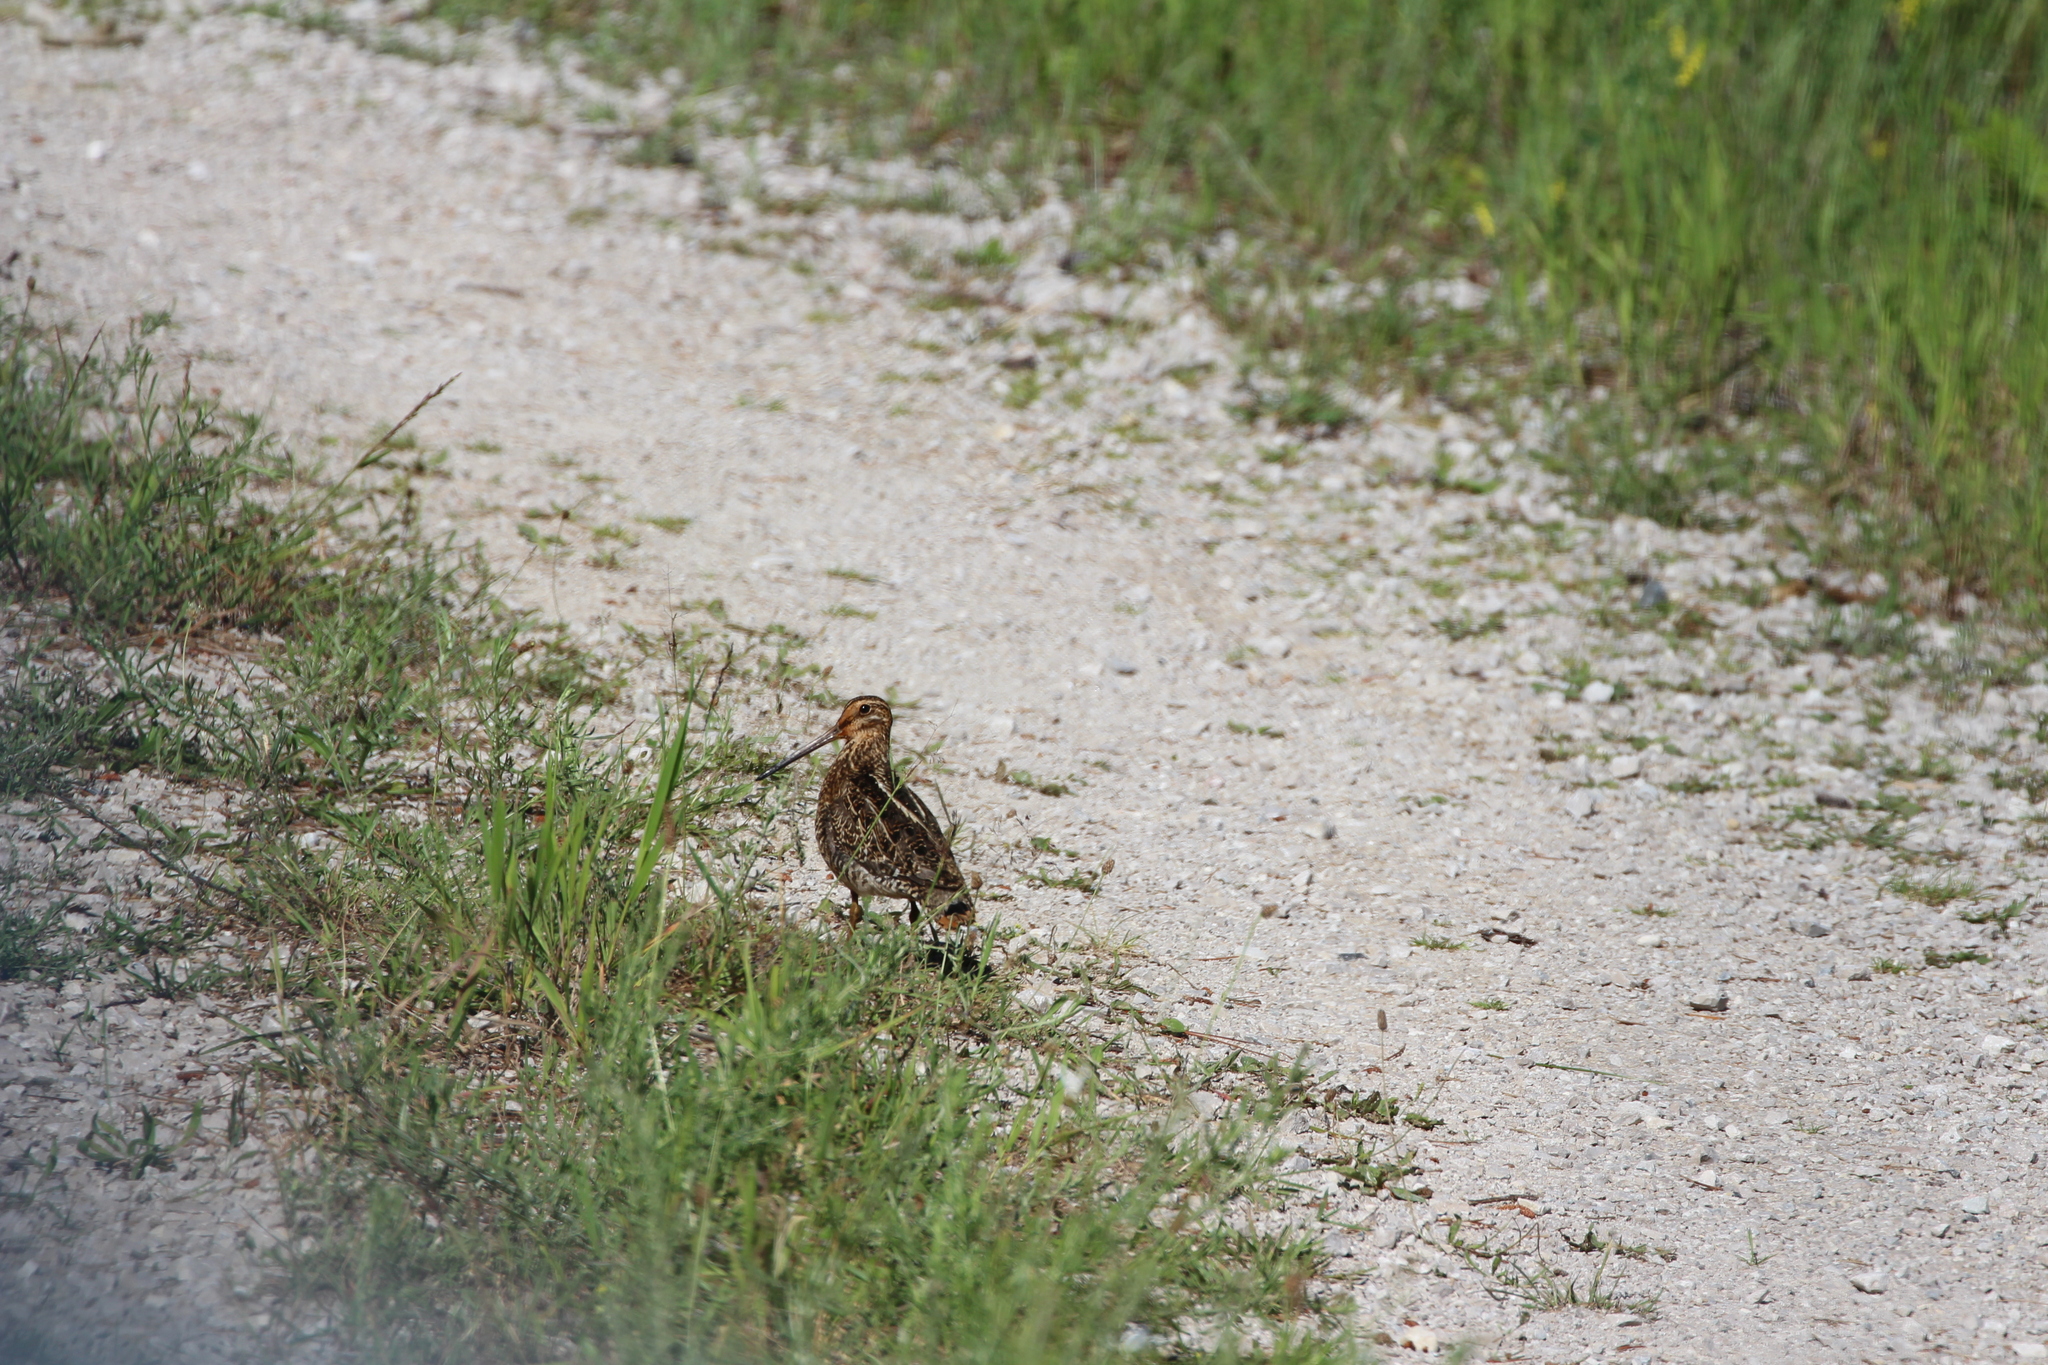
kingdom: Animalia
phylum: Chordata
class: Aves
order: Charadriiformes
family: Scolopacidae
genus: Gallinago
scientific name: Gallinago delicata
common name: Wilson's snipe
